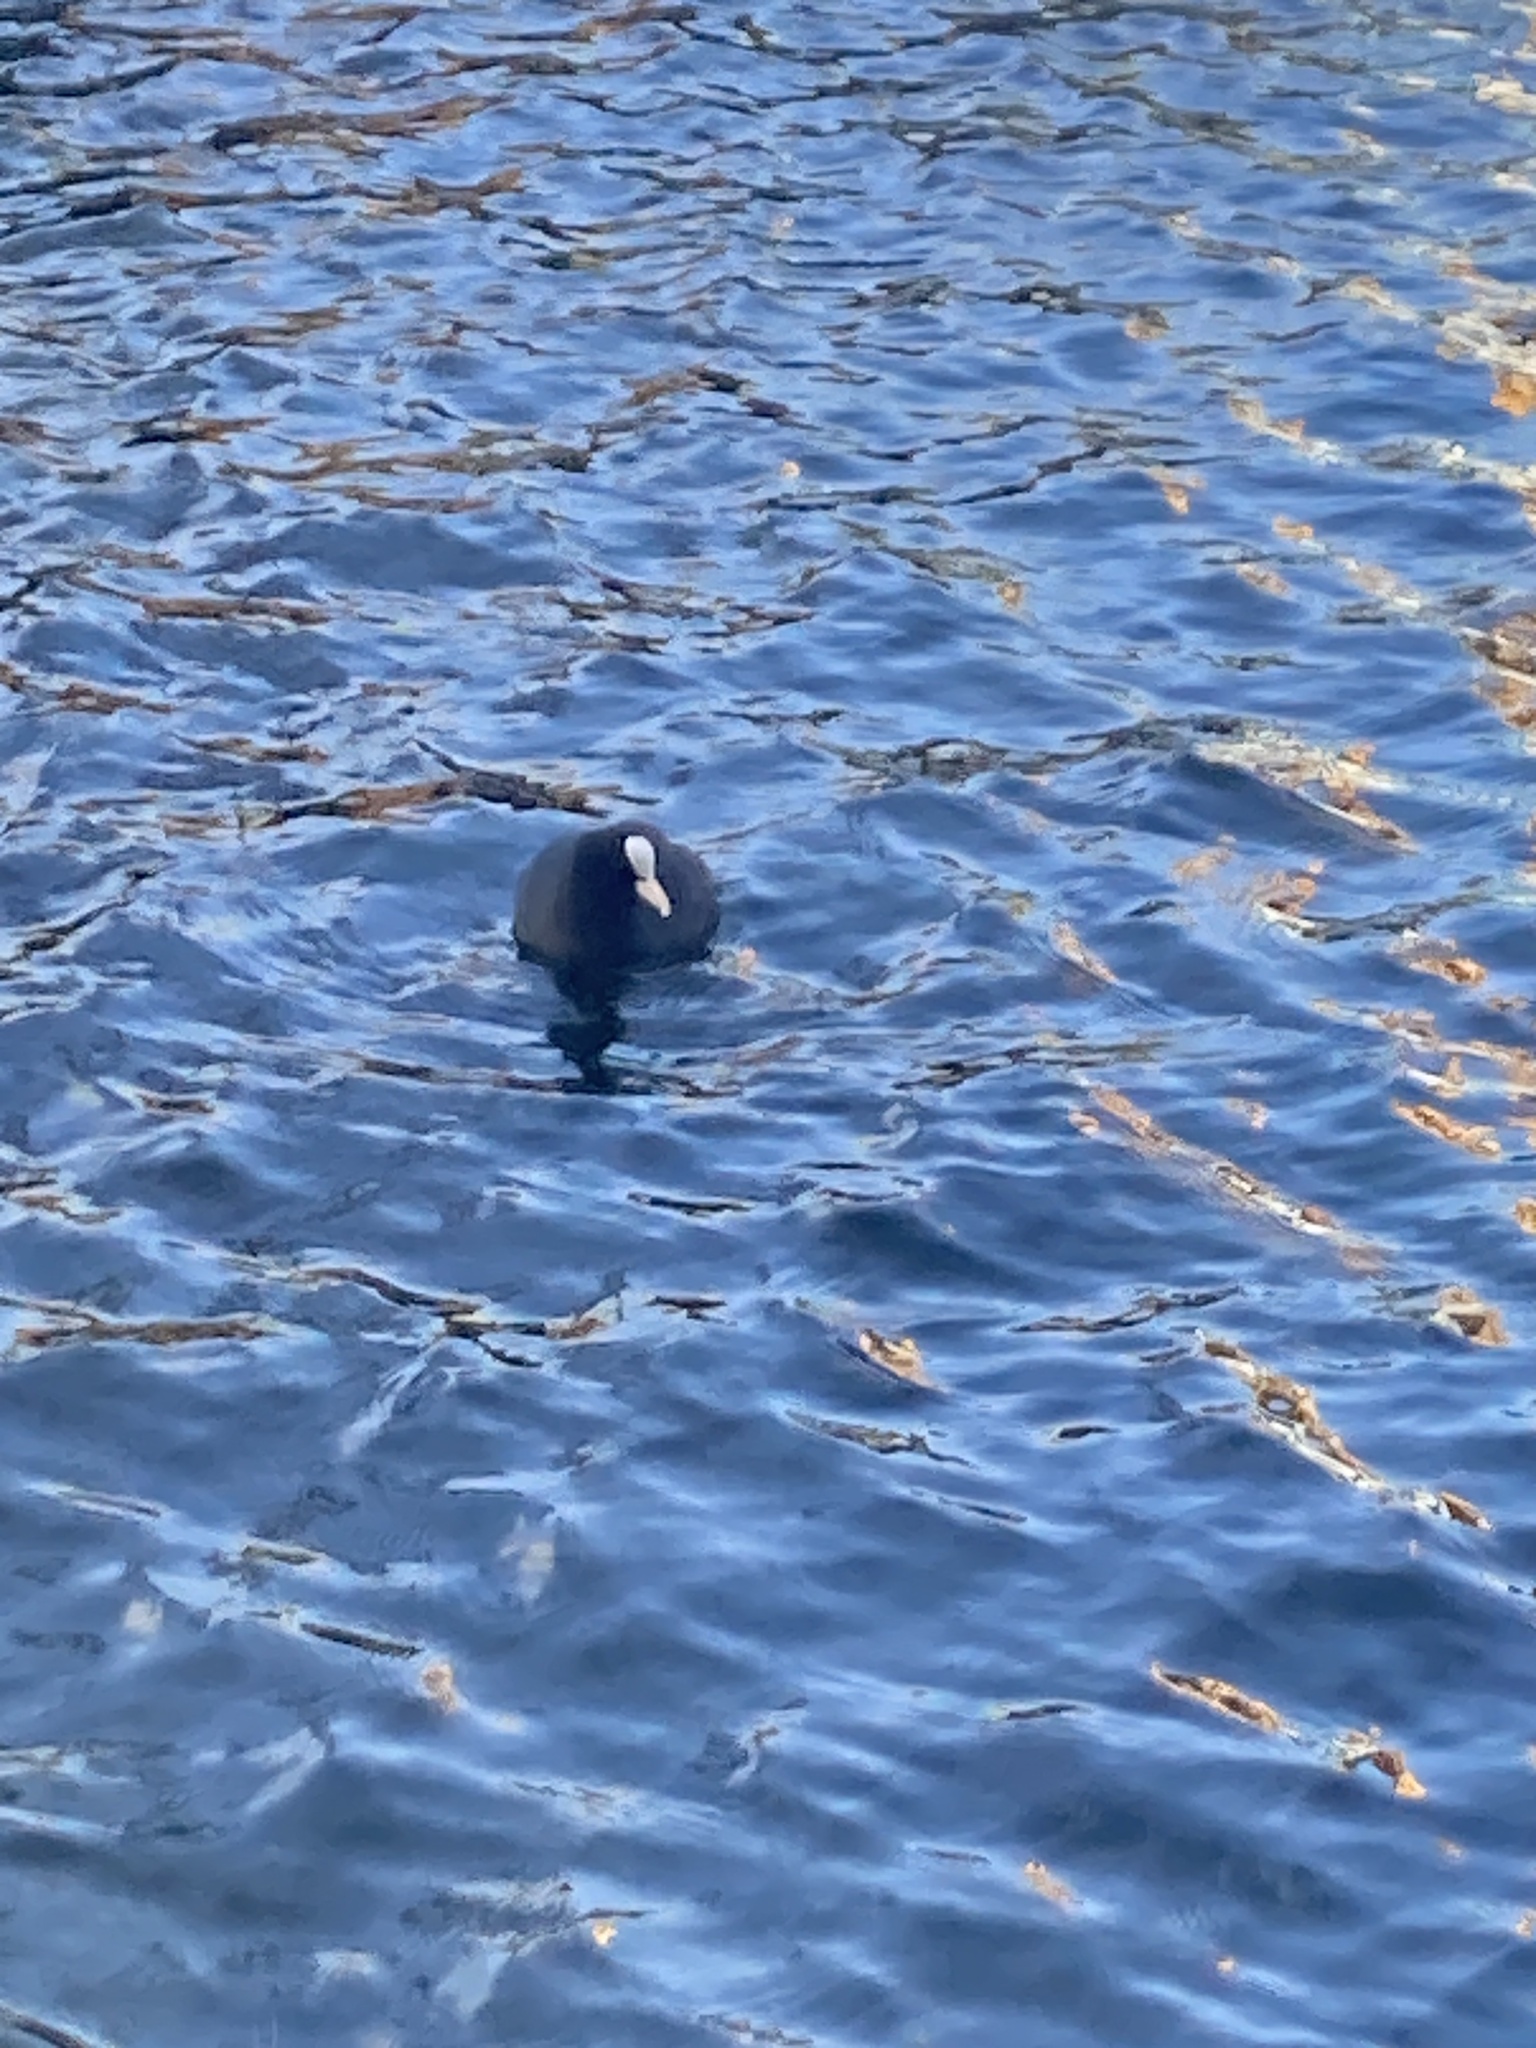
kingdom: Animalia
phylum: Chordata
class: Aves
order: Gruiformes
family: Rallidae
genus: Fulica
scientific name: Fulica atra
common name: Eurasian coot
